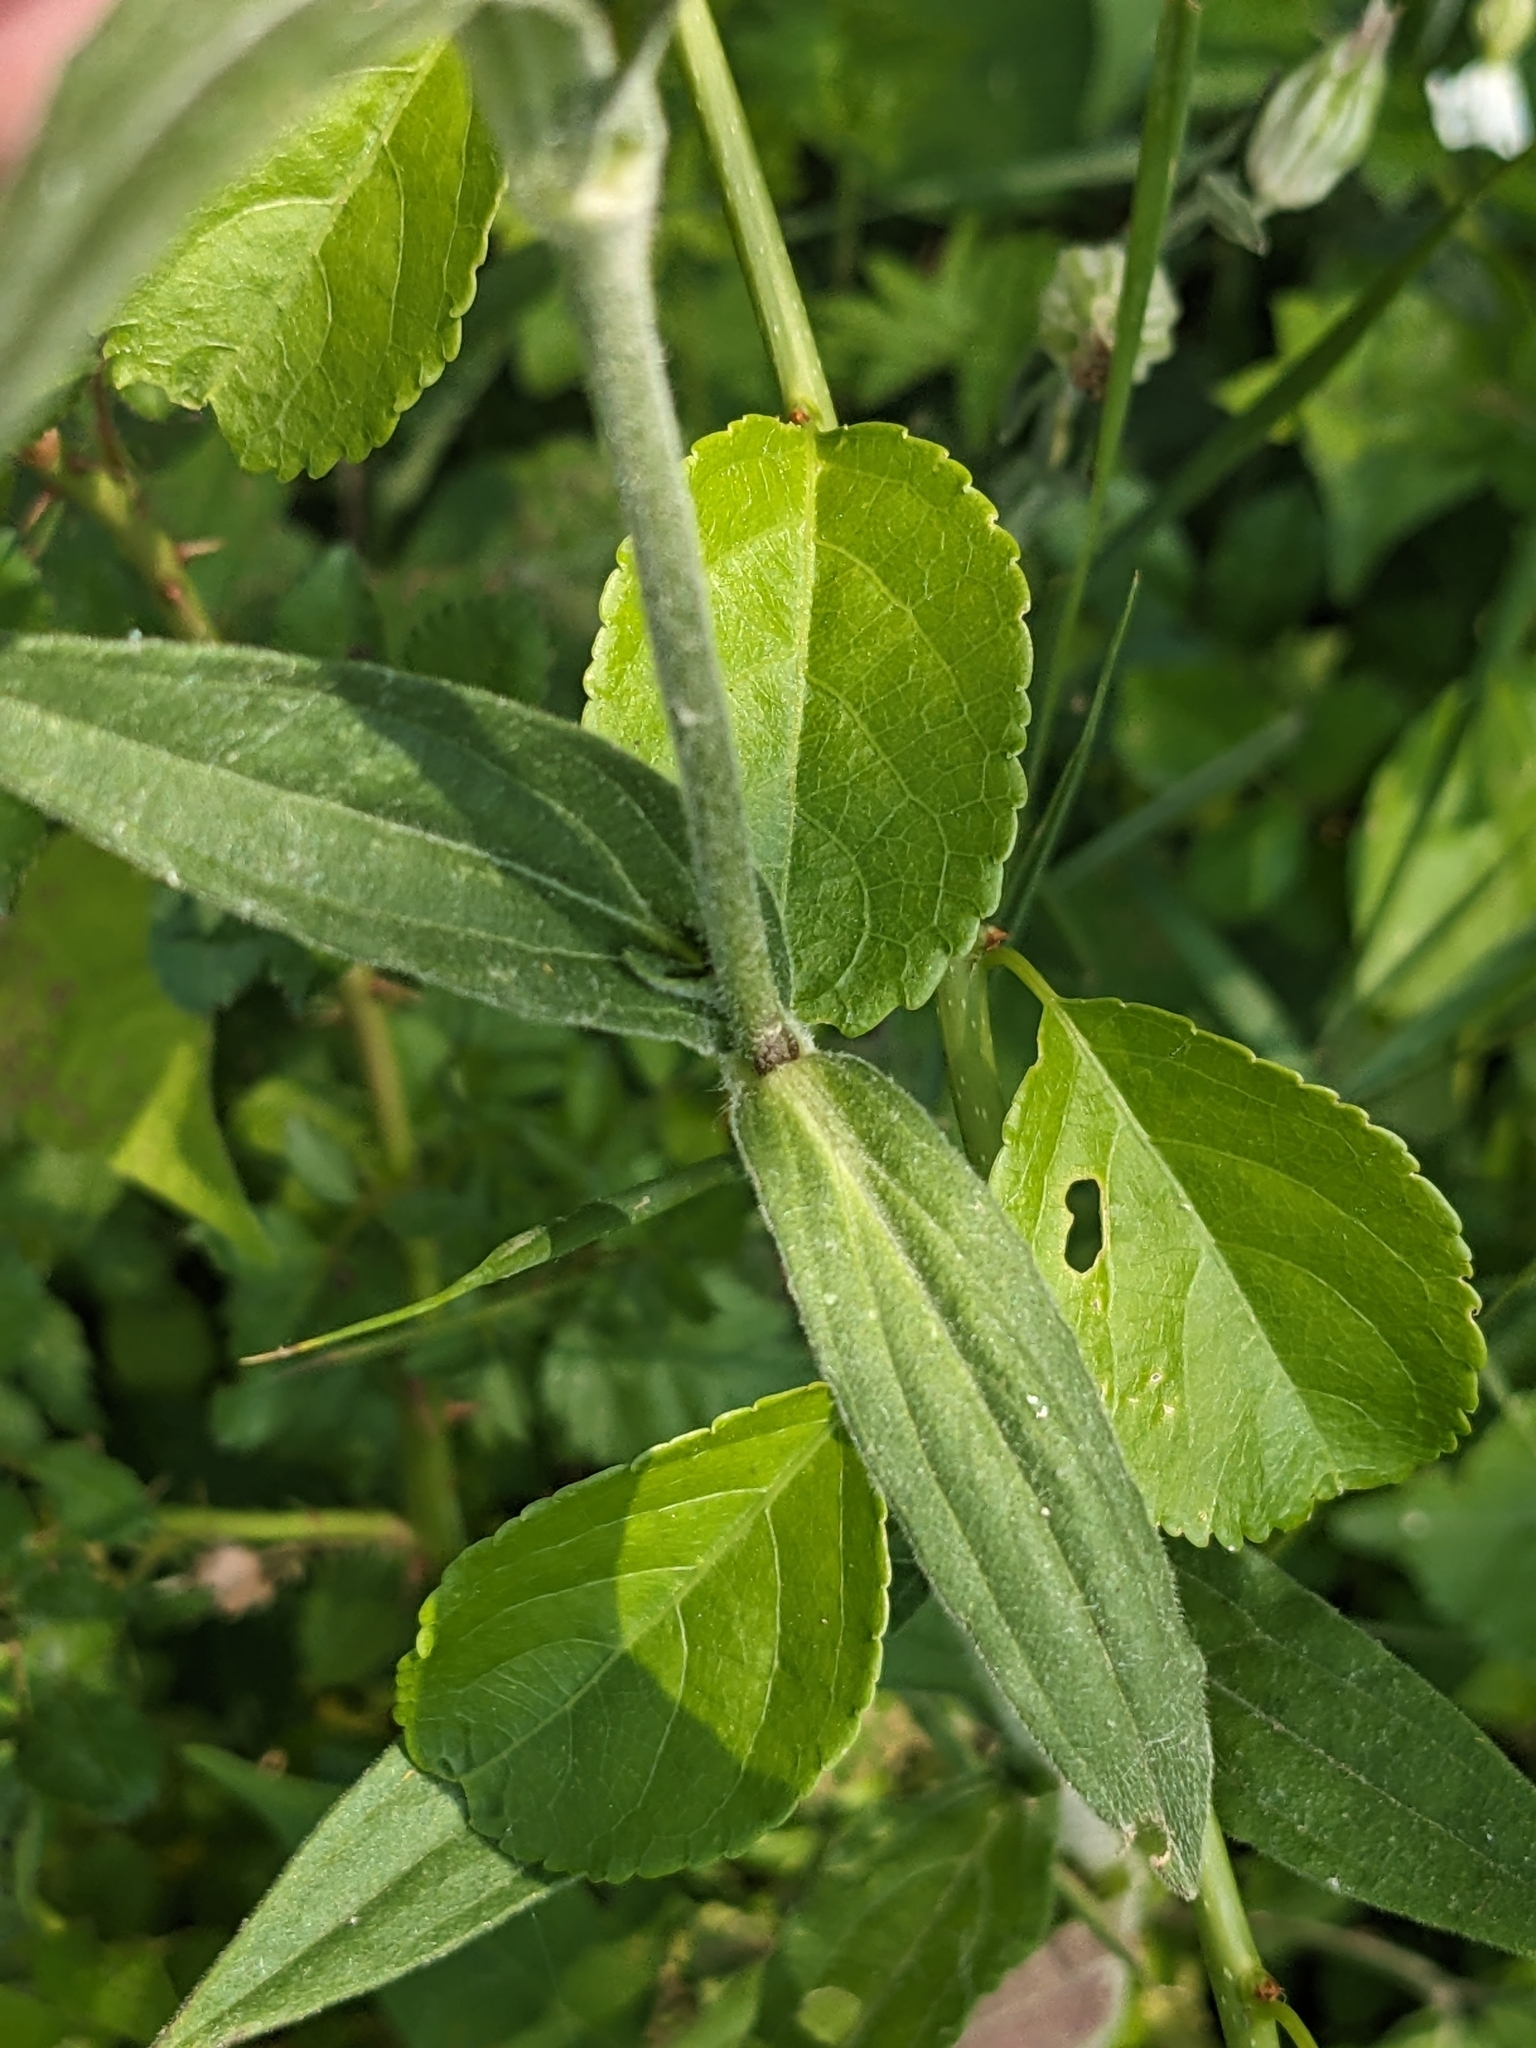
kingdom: Plantae
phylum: Tracheophyta
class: Magnoliopsida
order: Caryophyllales
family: Caryophyllaceae
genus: Silene
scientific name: Silene latifolia
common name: White campion
